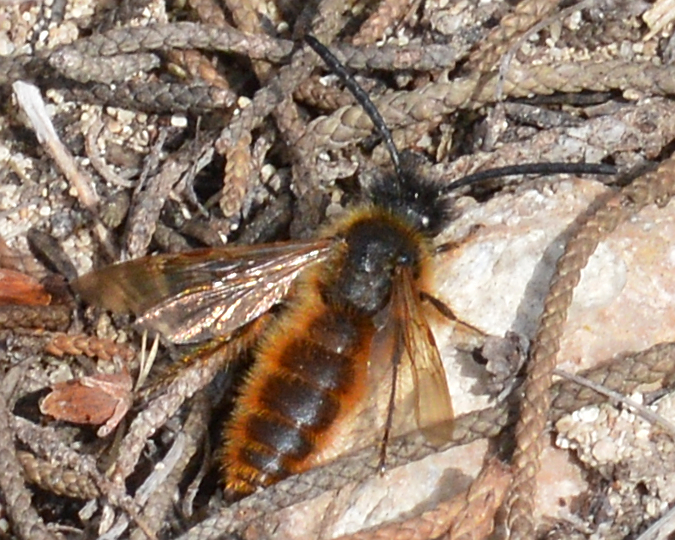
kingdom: Animalia
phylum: Arthropoda
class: Insecta
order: Hymenoptera
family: Scoliidae
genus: Dasyscolia
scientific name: Dasyscolia ciliata
